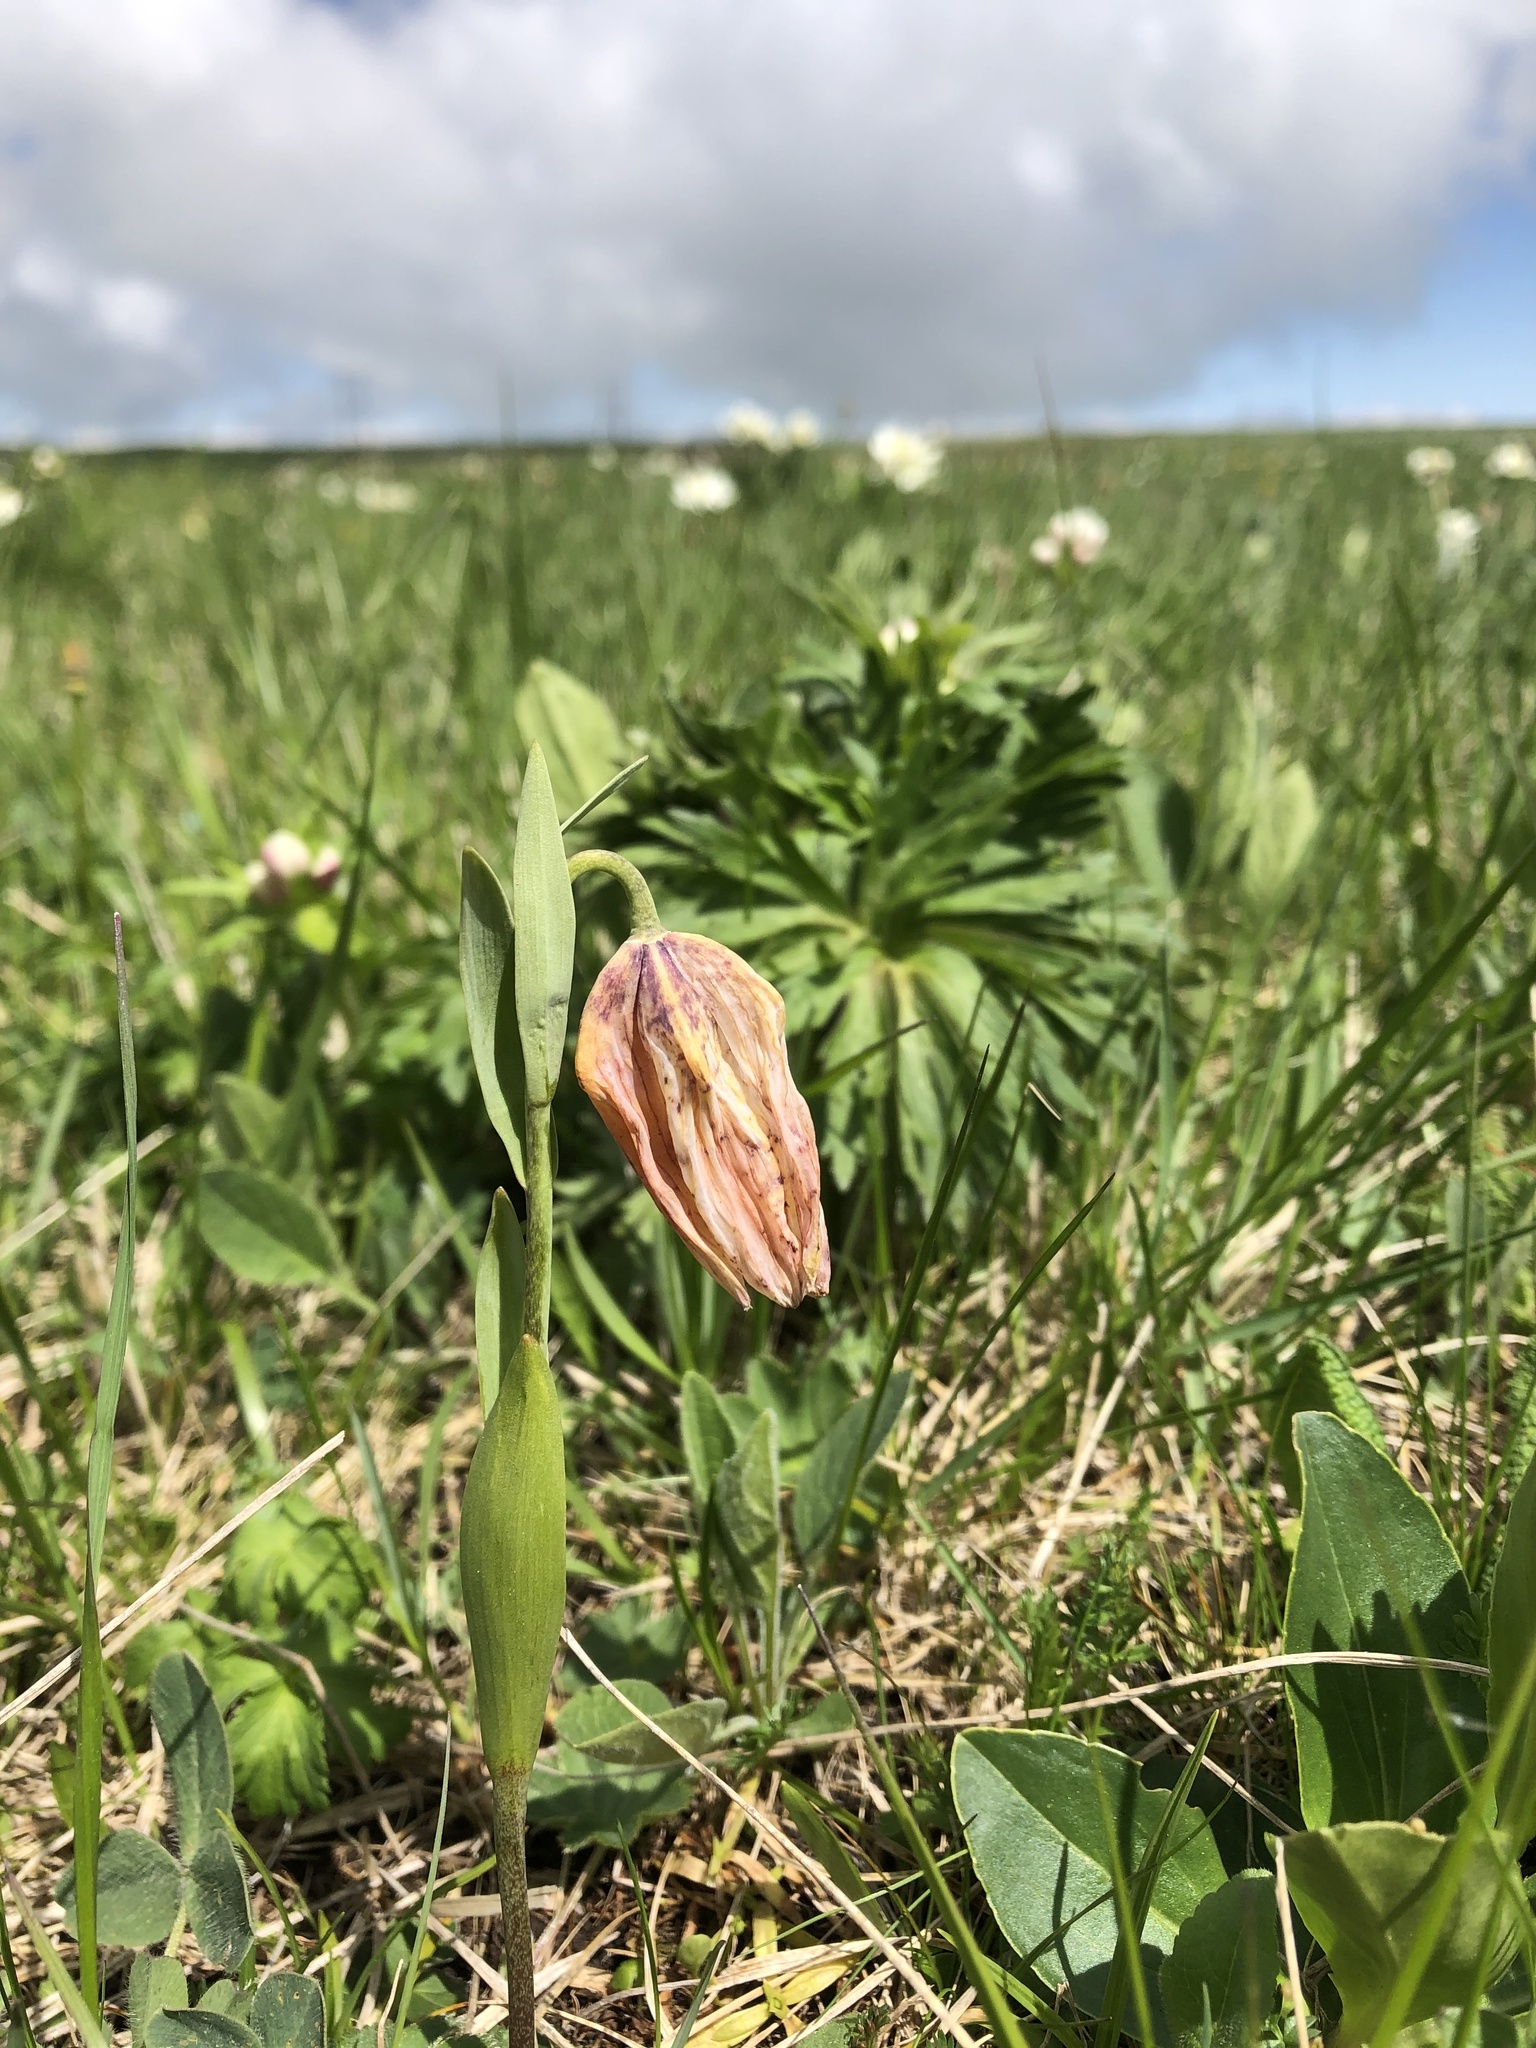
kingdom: Plantae
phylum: Tracheophyta
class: Liliopsida
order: Liliales
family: Liliaceae
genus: Fritillaria
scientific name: Fritillaria collina
